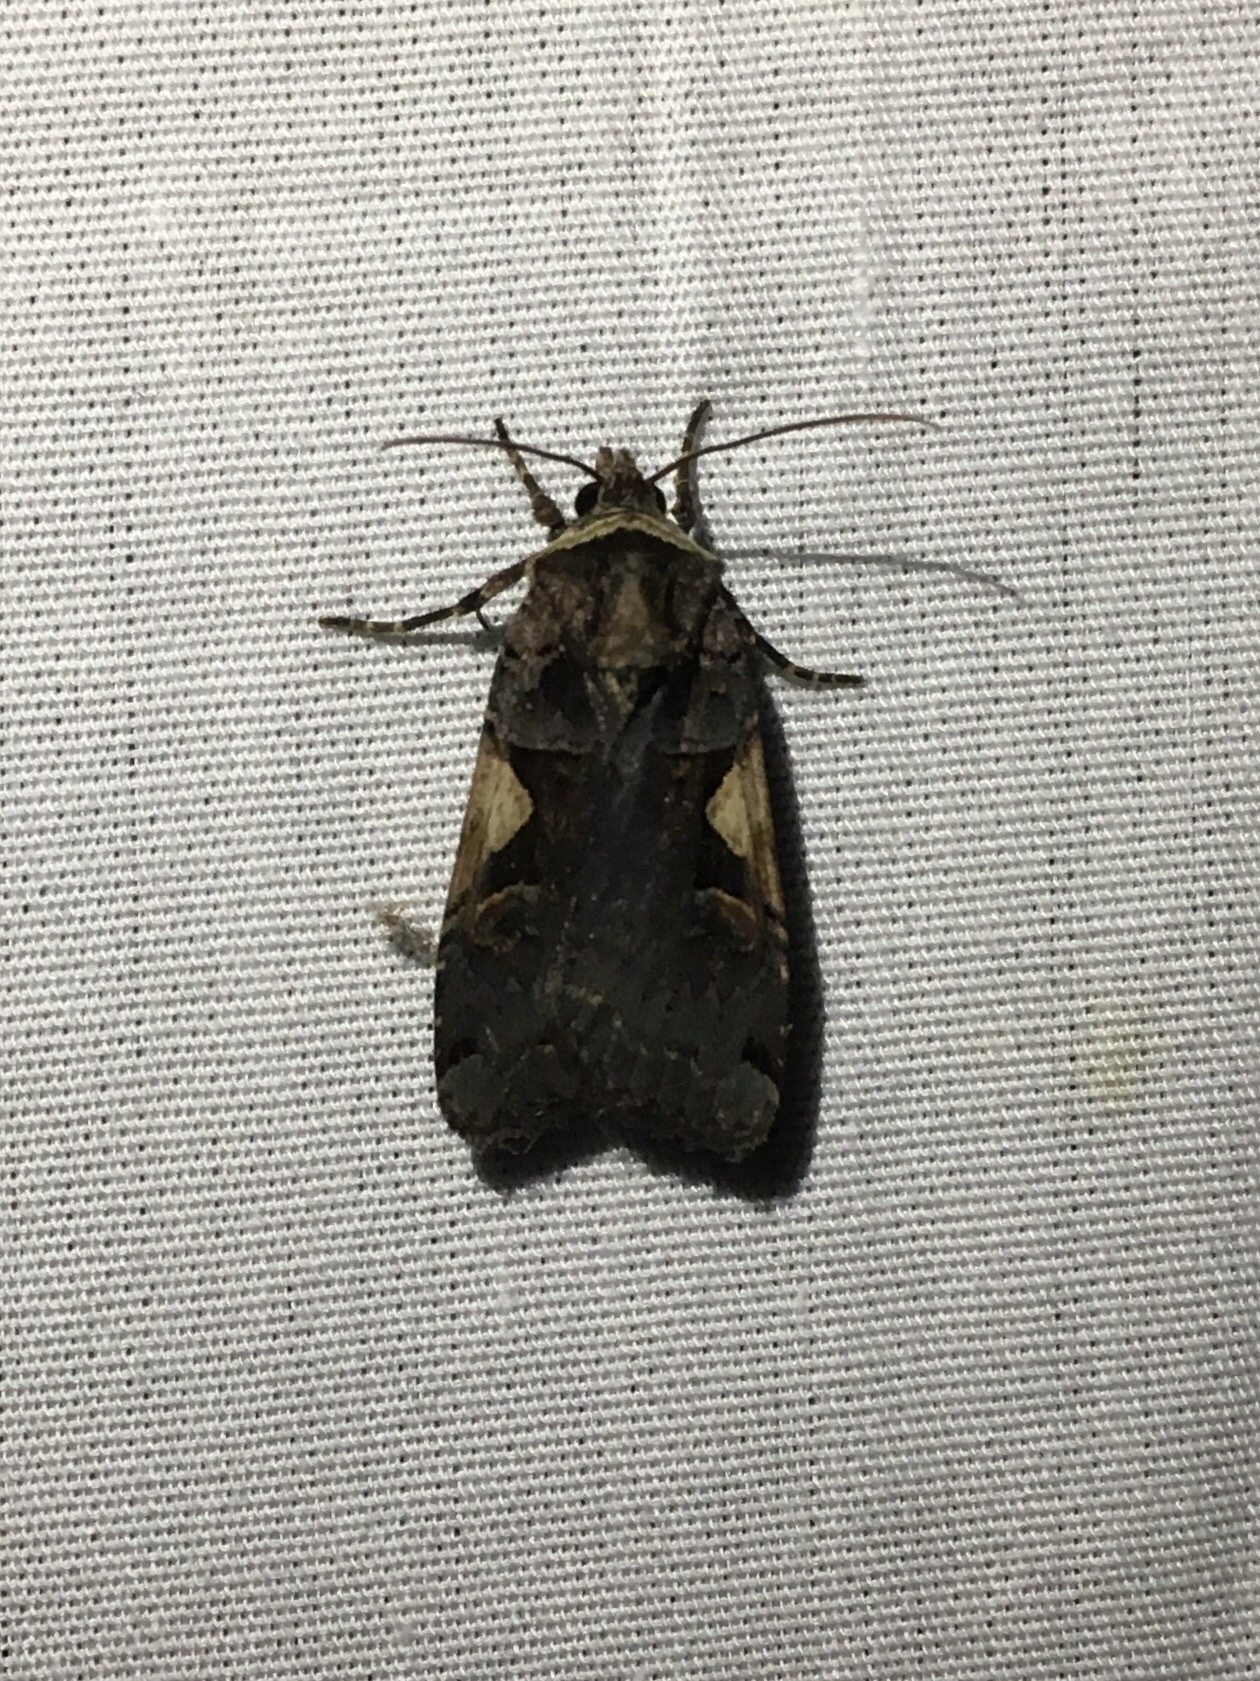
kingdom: Animalia
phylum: Arthropoda
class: Insecta
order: Lepidoptera
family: Noctuidae
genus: Xestia
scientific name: Xestia
